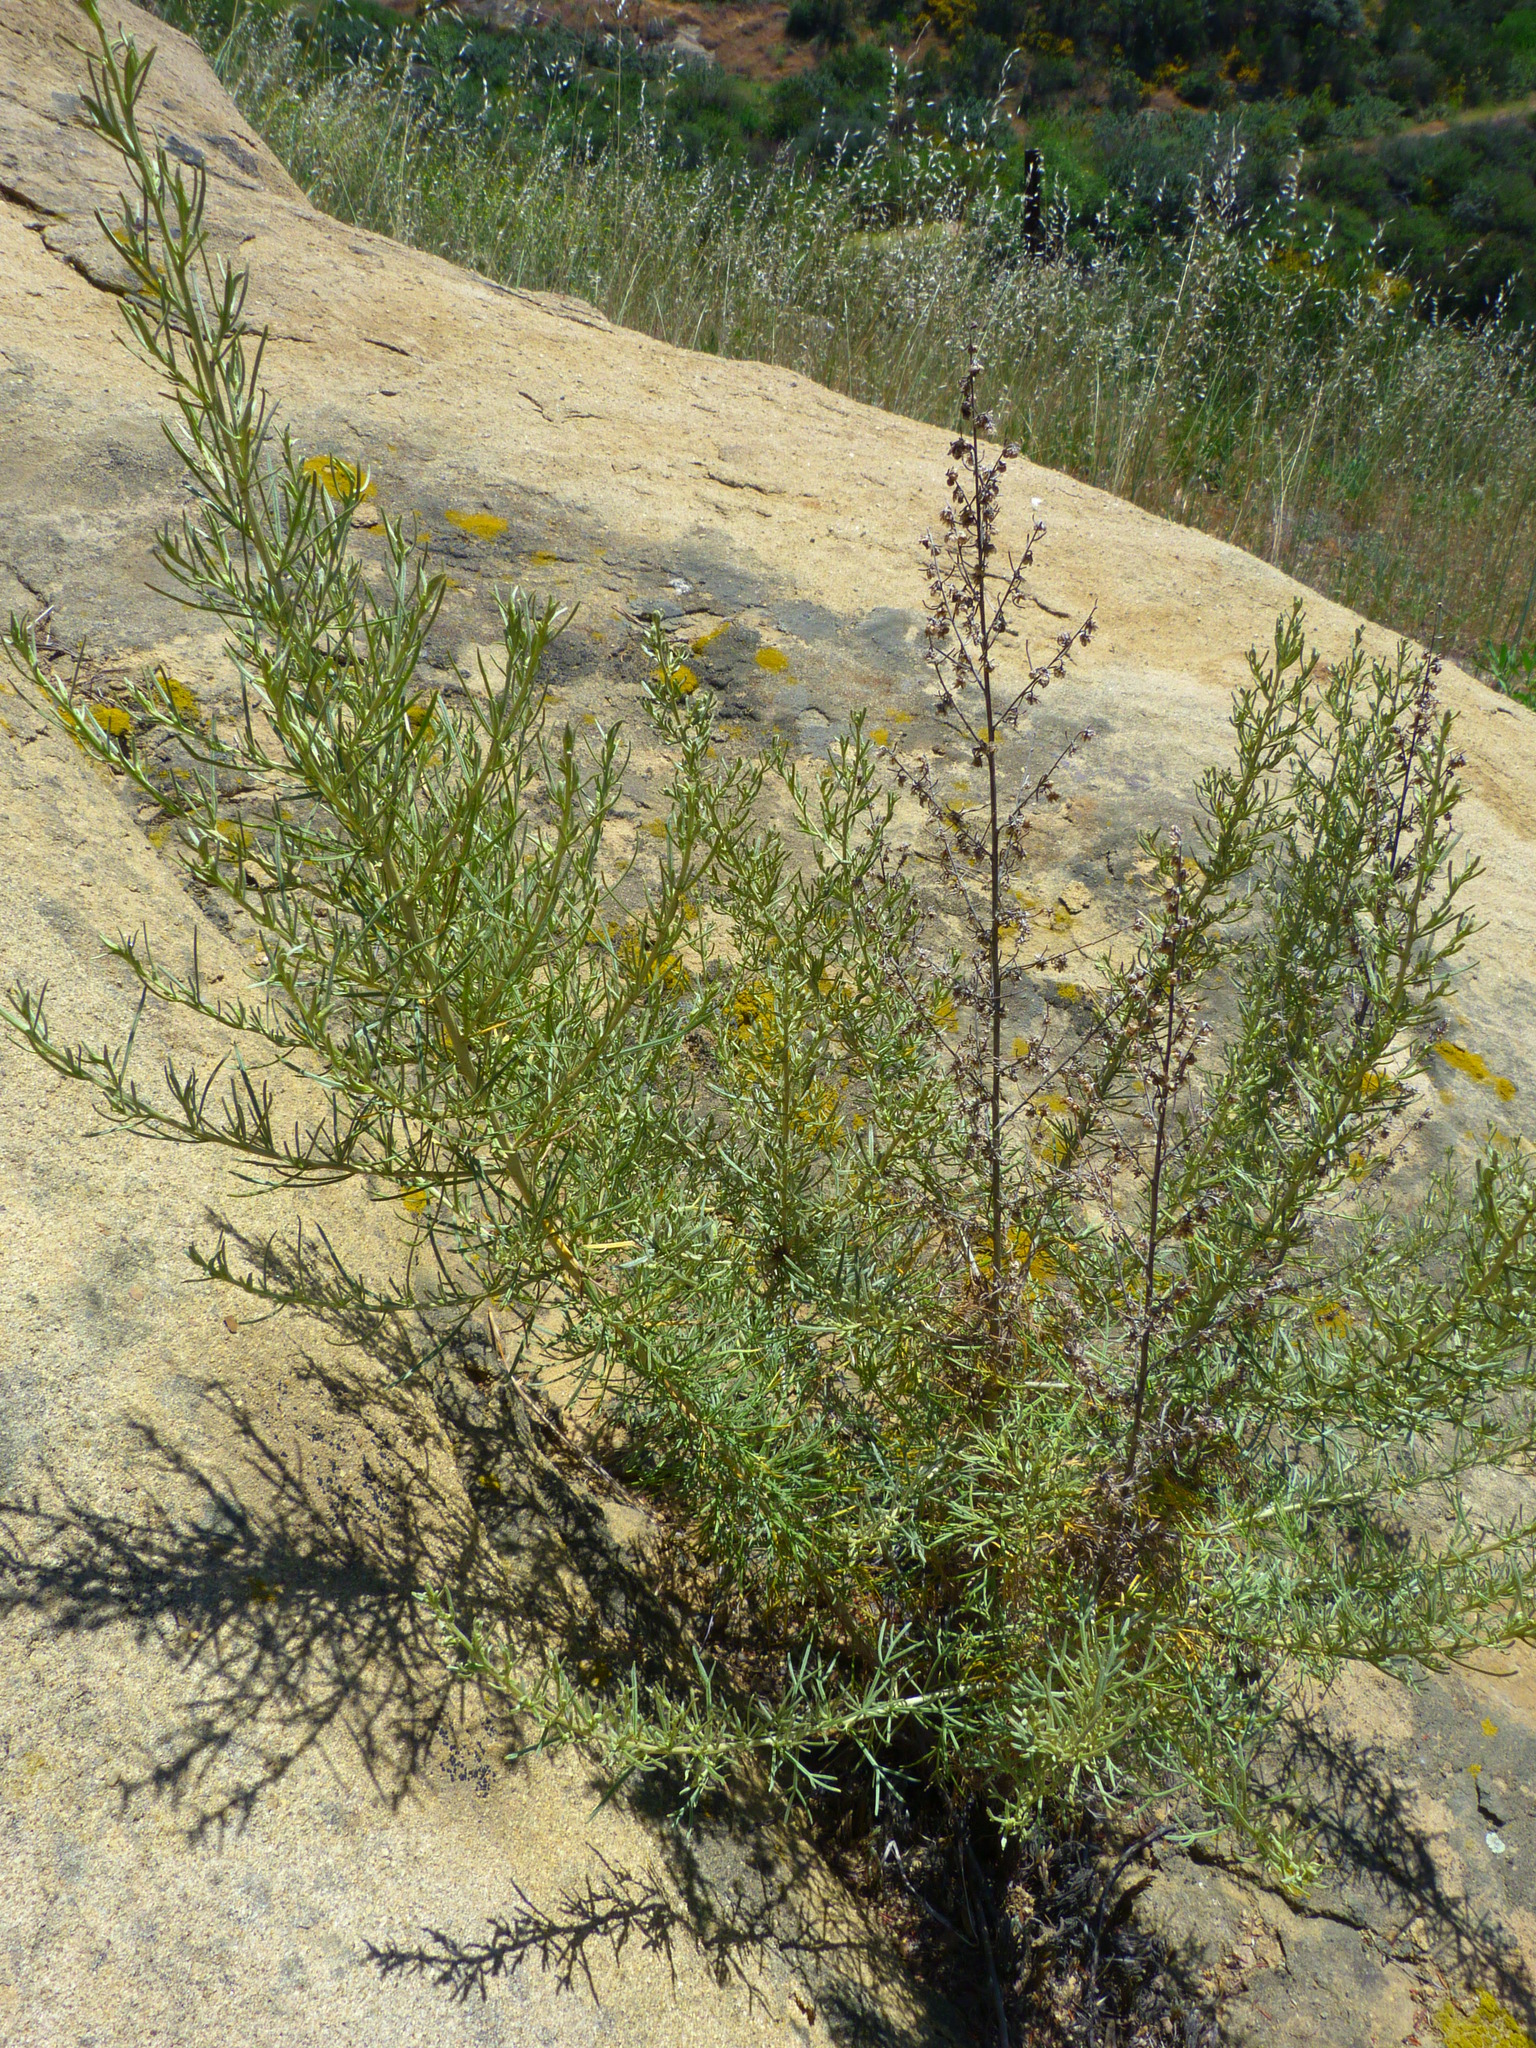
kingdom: Plantae
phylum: Tracheophyta
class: Magnoliopsida
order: Asterales
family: Asteraceae
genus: Artemisia
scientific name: Artemisia californica
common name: California sagebrush
